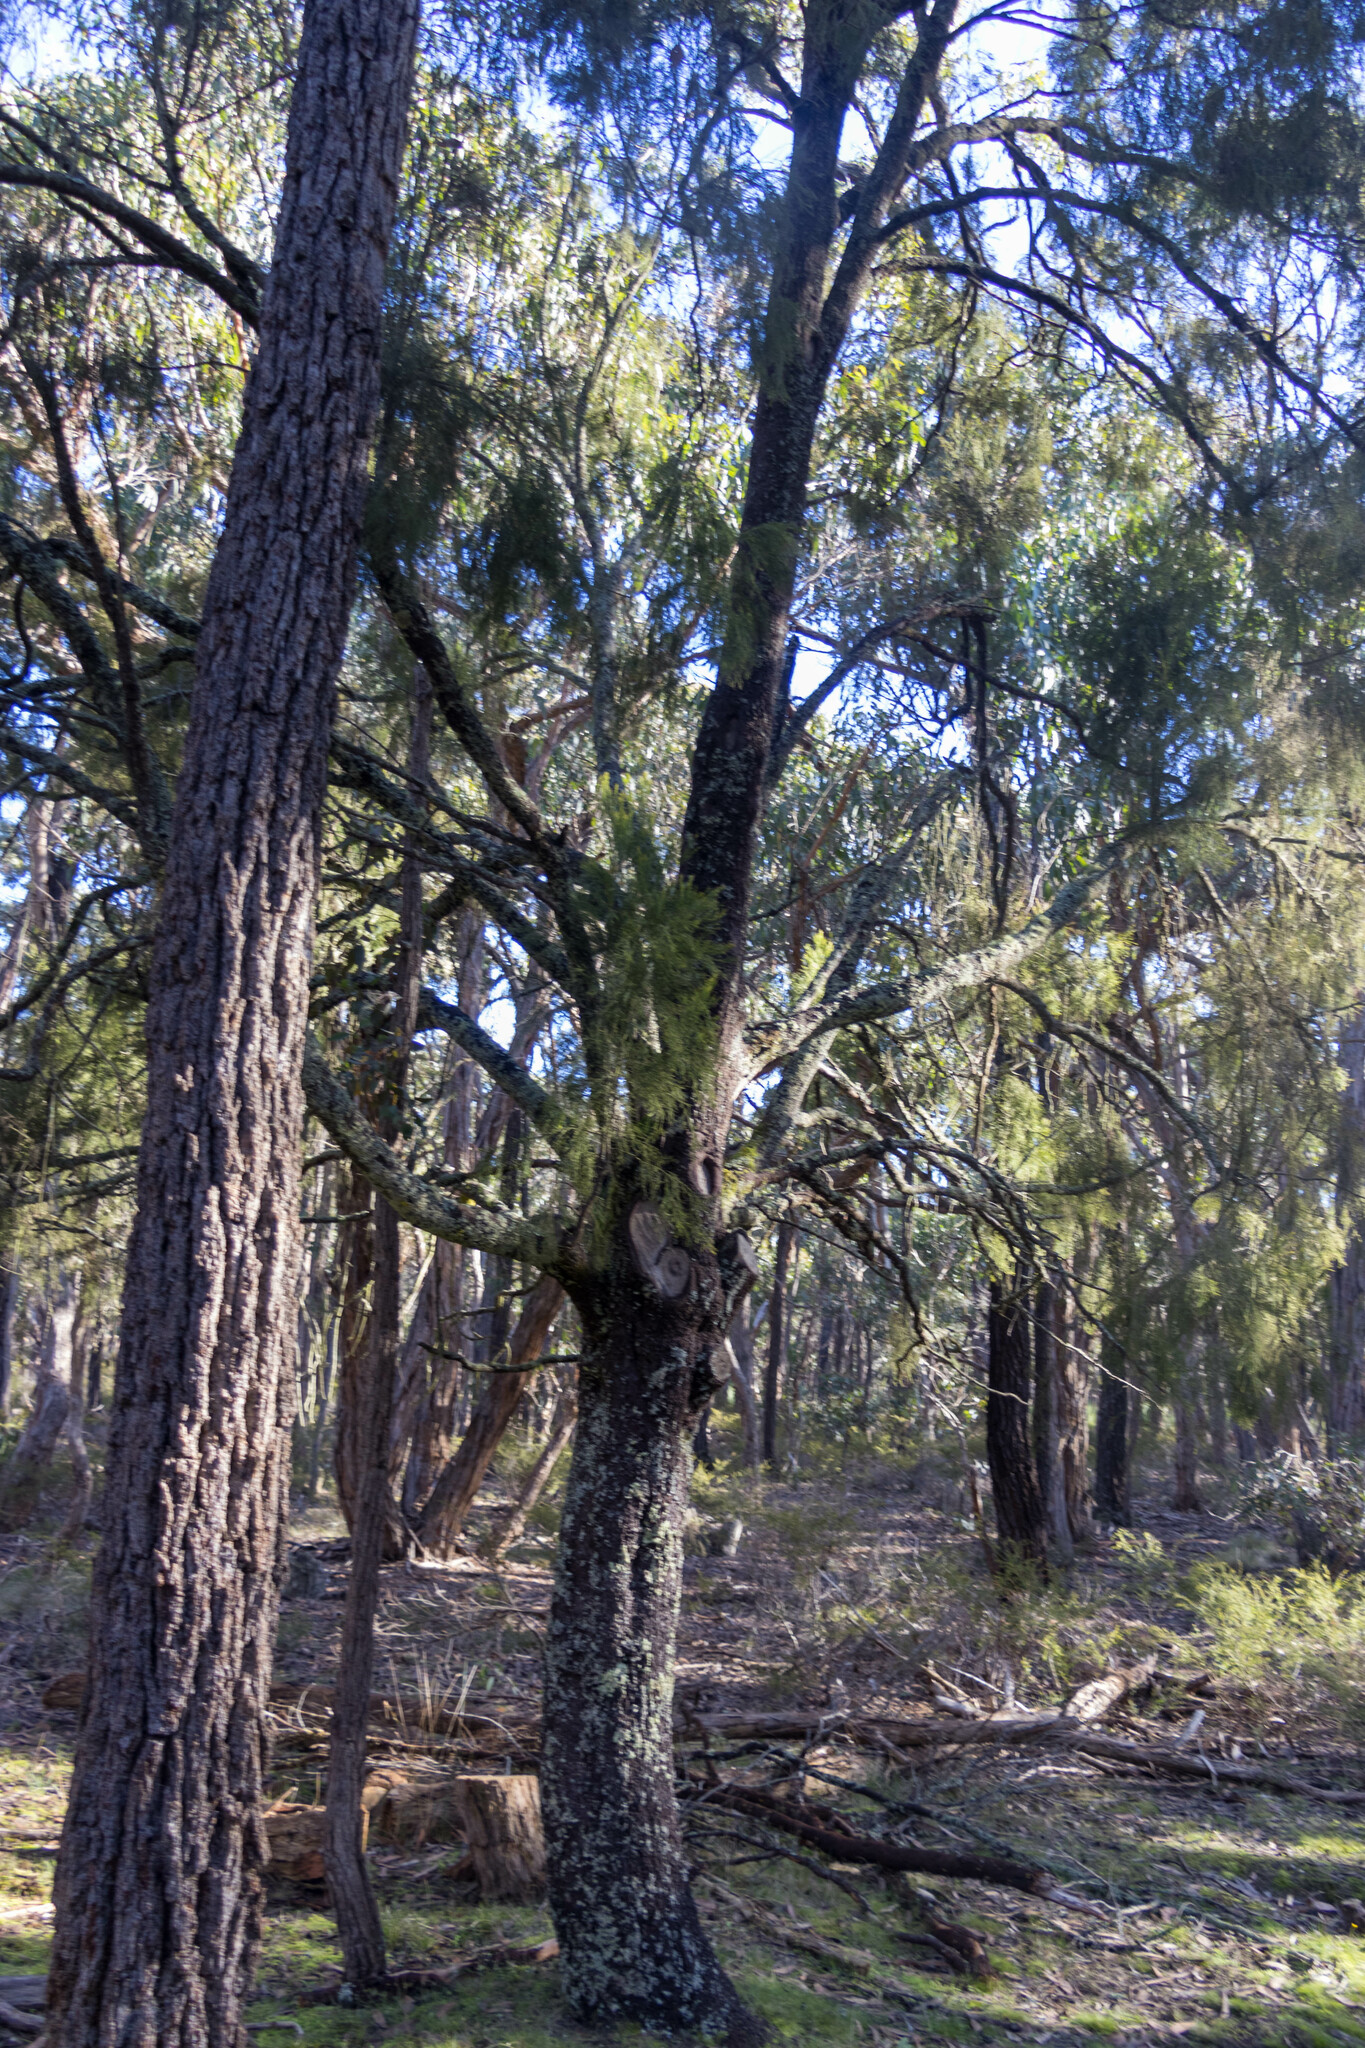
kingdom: Plantae
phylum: Tracheophyta
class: Magnoliopsida
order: Santalales
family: Santalaceae
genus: Exocarpos
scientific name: Exocarpos cupressiformis
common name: Cherry ballart
